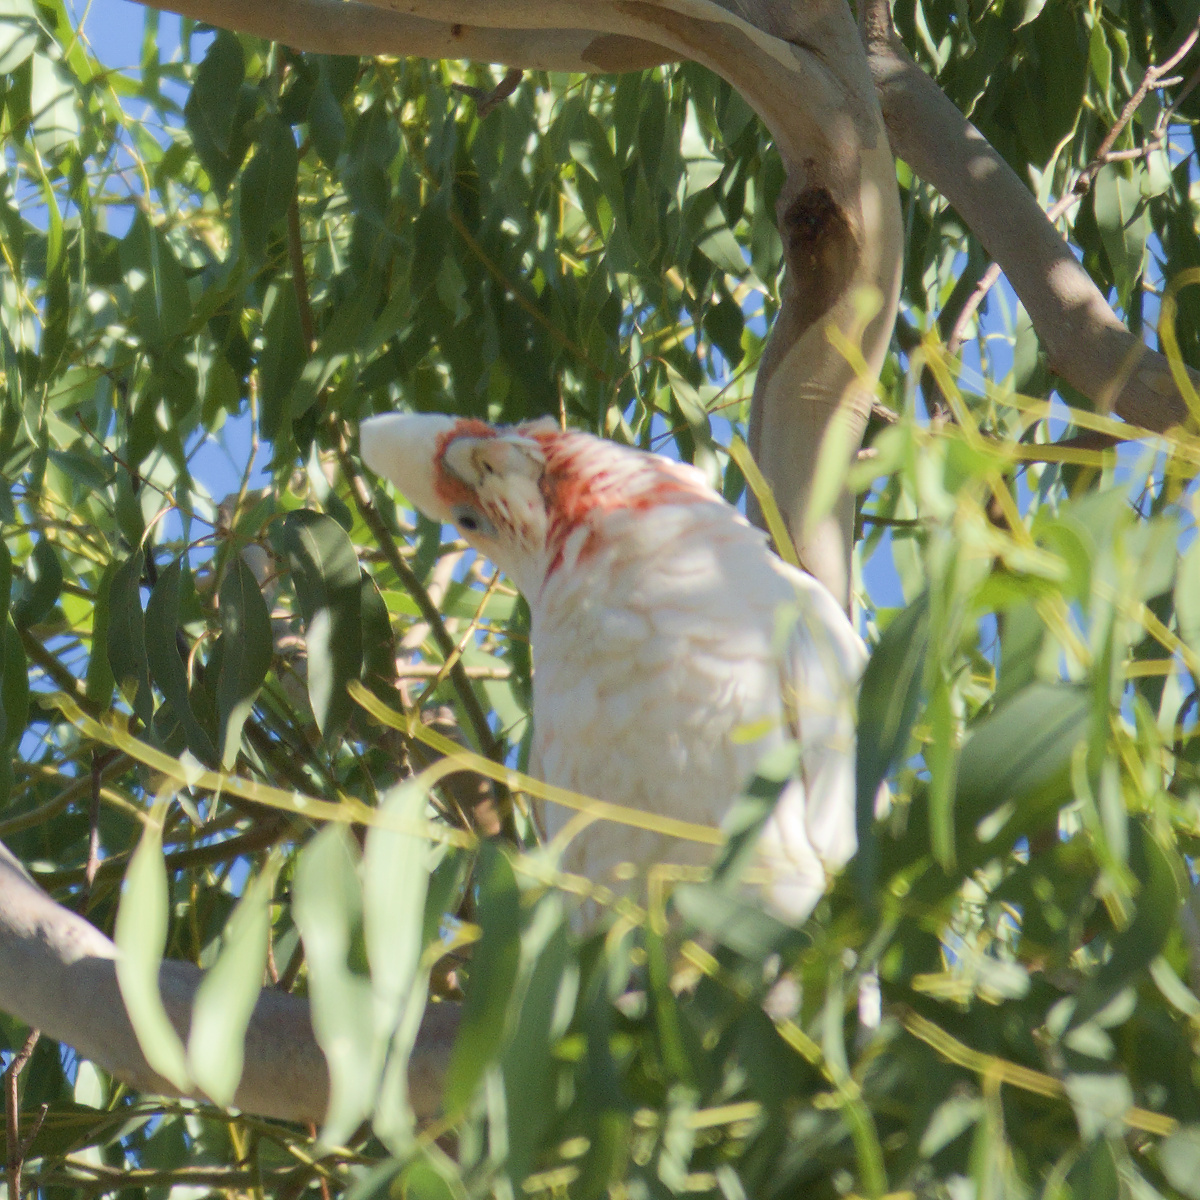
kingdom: Animalia
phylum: Chordata
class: Aves
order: Psittaciformes
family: Psittacidae
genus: Cacatua
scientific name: Cacatua tenuirostris
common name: Long-billed corella
